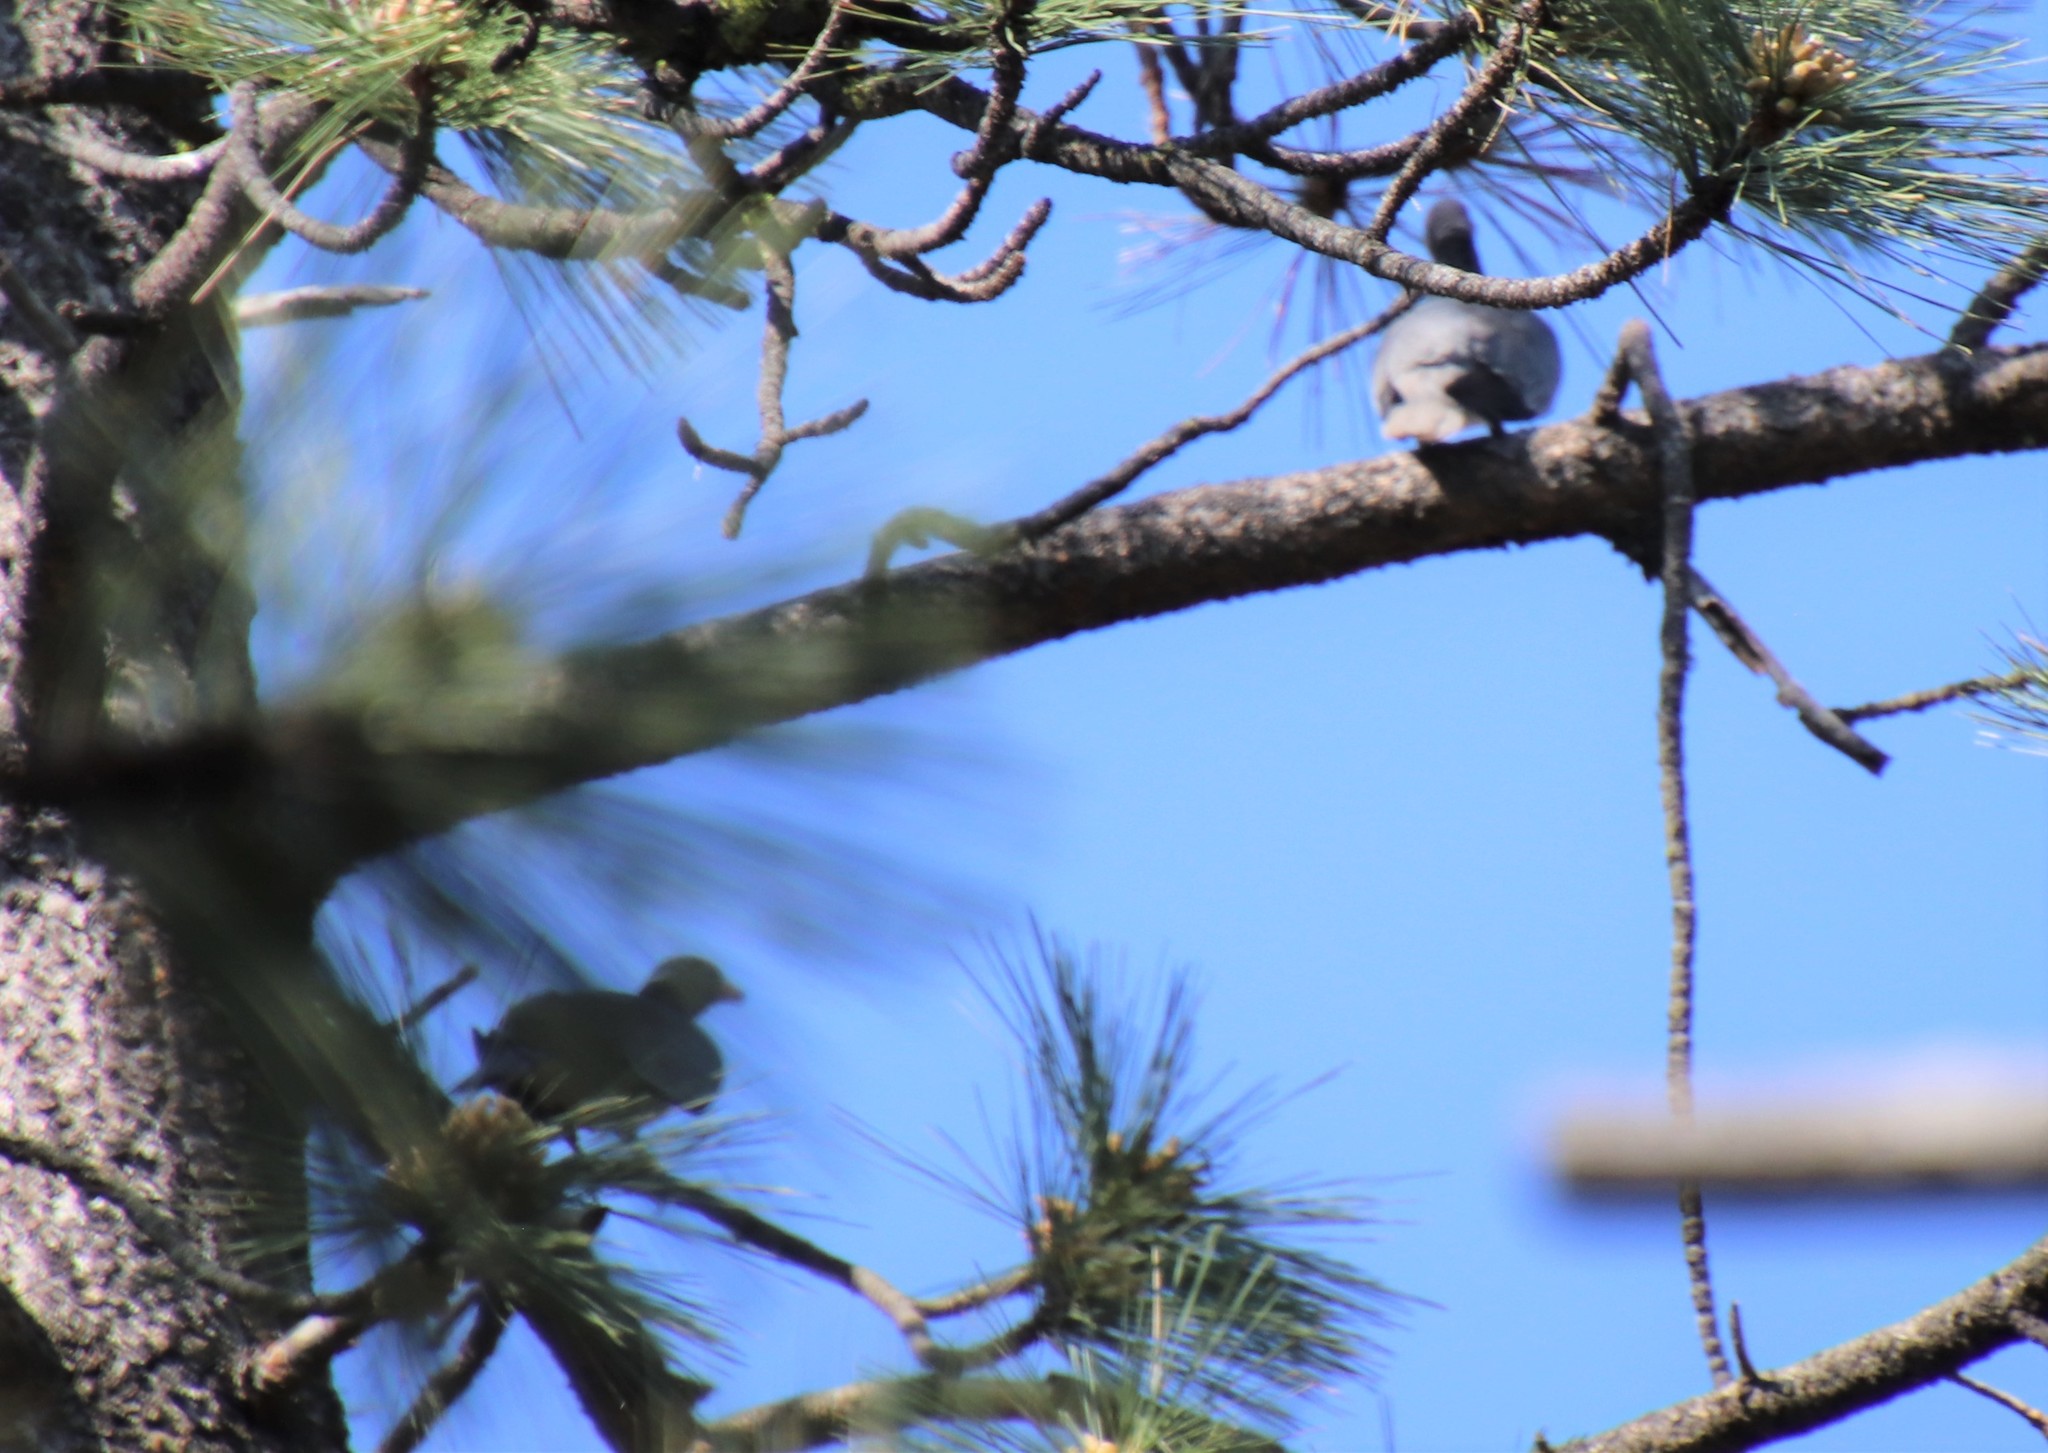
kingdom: Animalia
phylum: Chordata
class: Aves
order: Columbiformes
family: Columbidae
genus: Patagioenas
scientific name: Patagioenas fasciata
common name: Band-tailed pigeon
